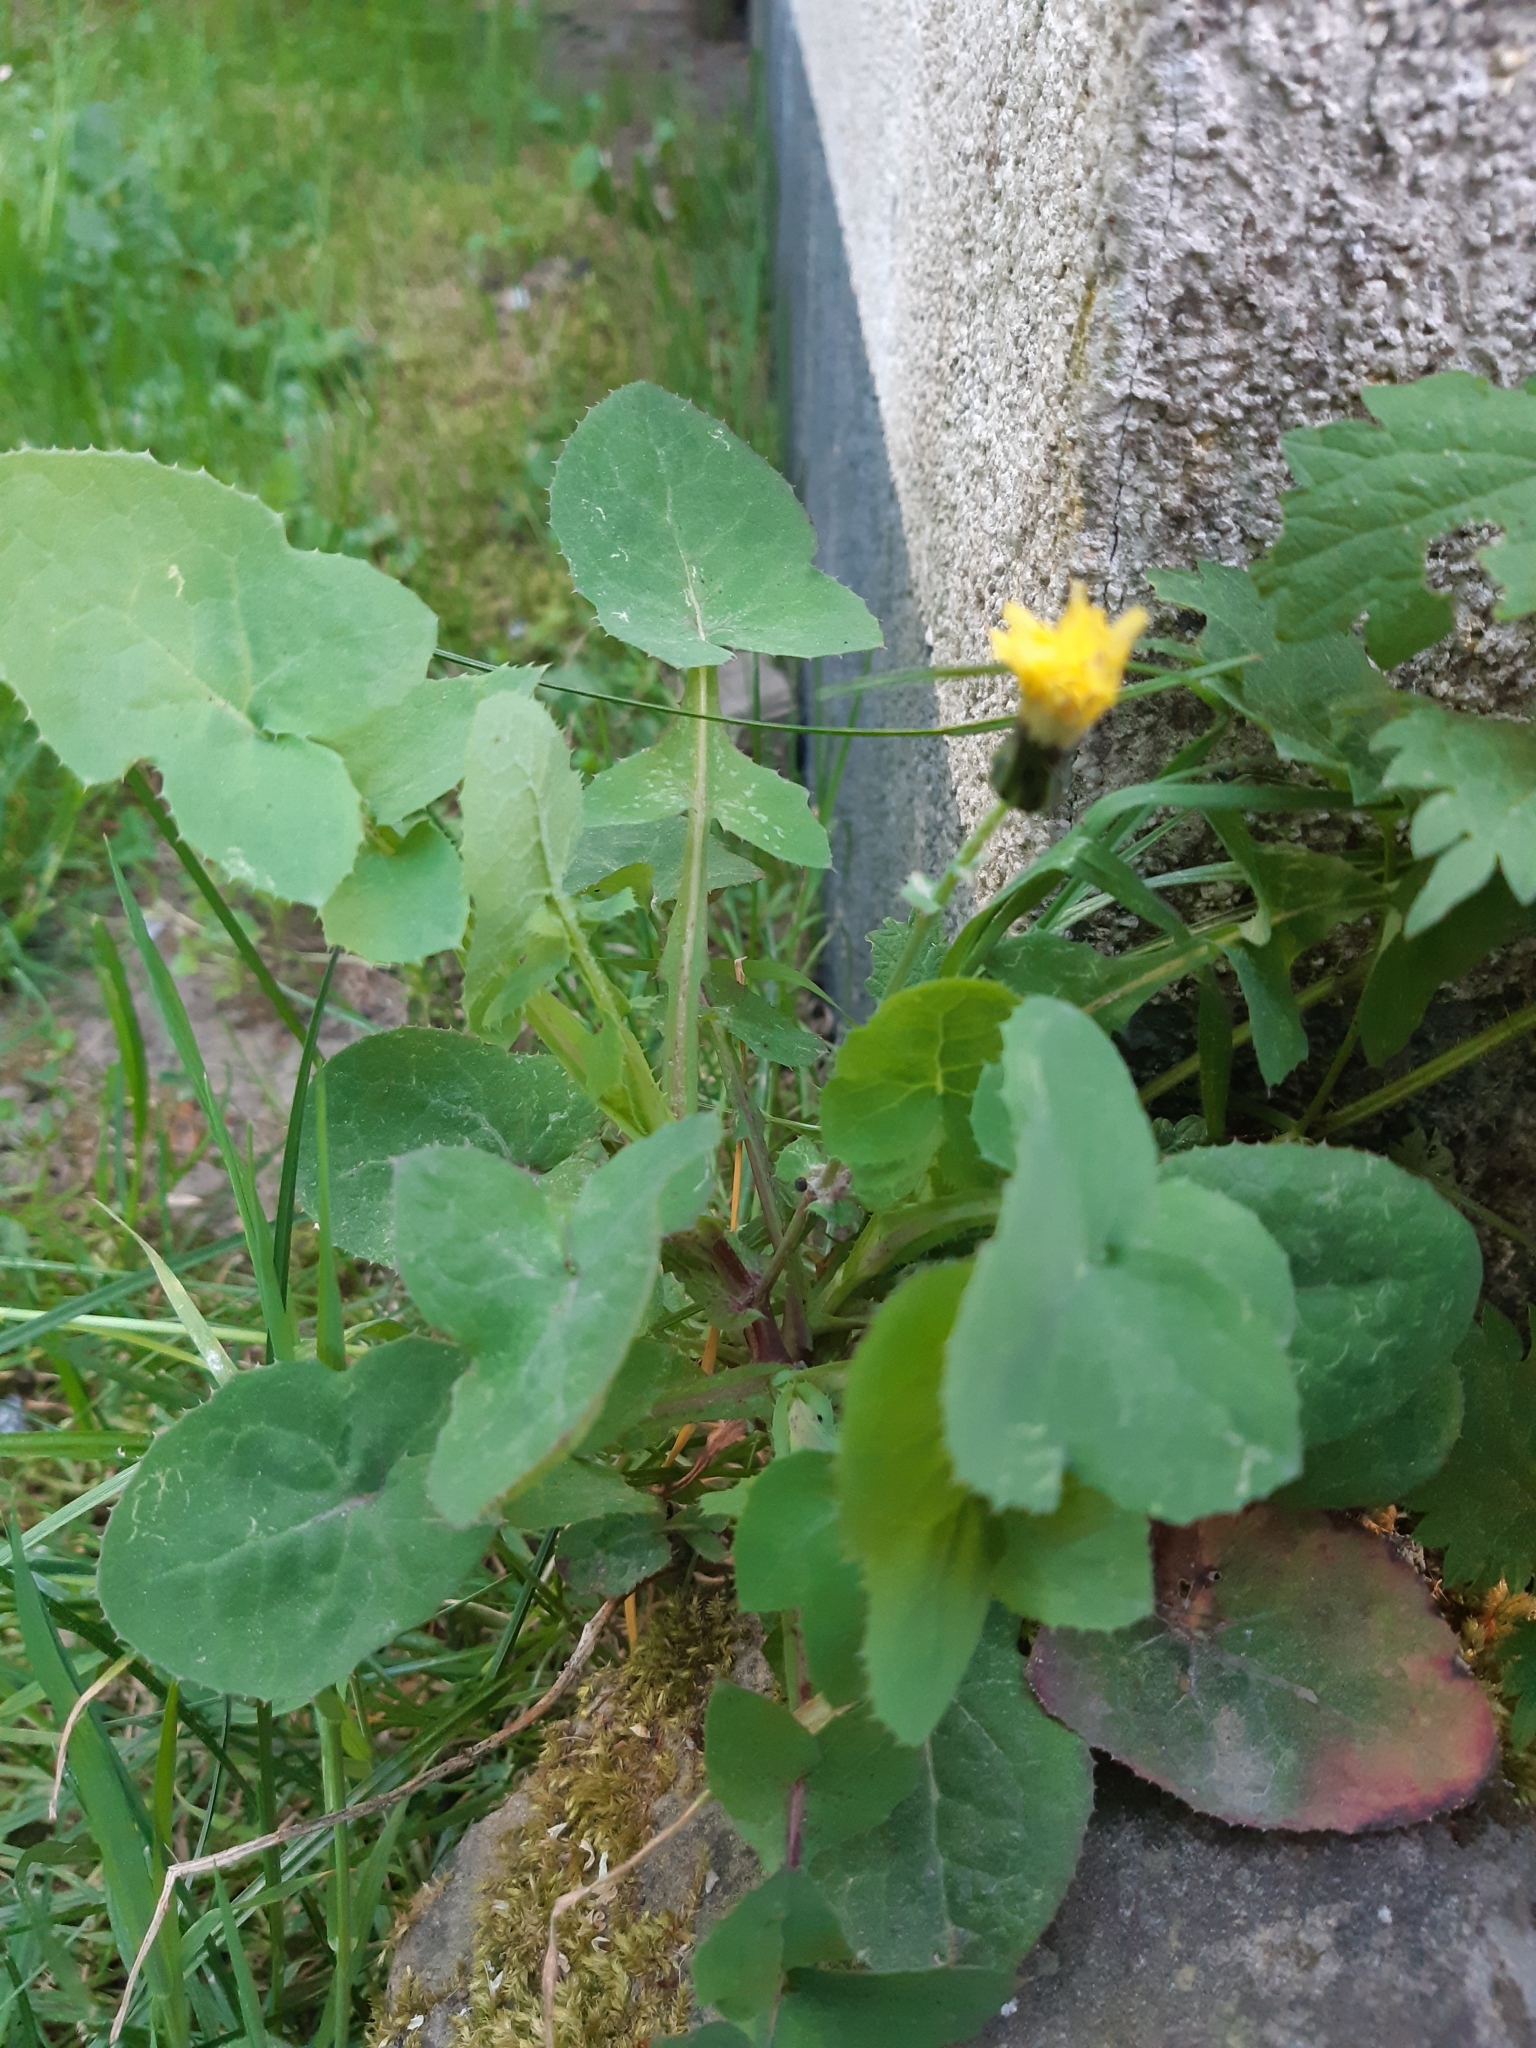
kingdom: Plantae
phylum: Tracheophyta
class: Magnoliopsida
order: Asterales
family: Asteraceae
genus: Sonchus
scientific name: Sonchus oleraceus
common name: Common sowthistle
